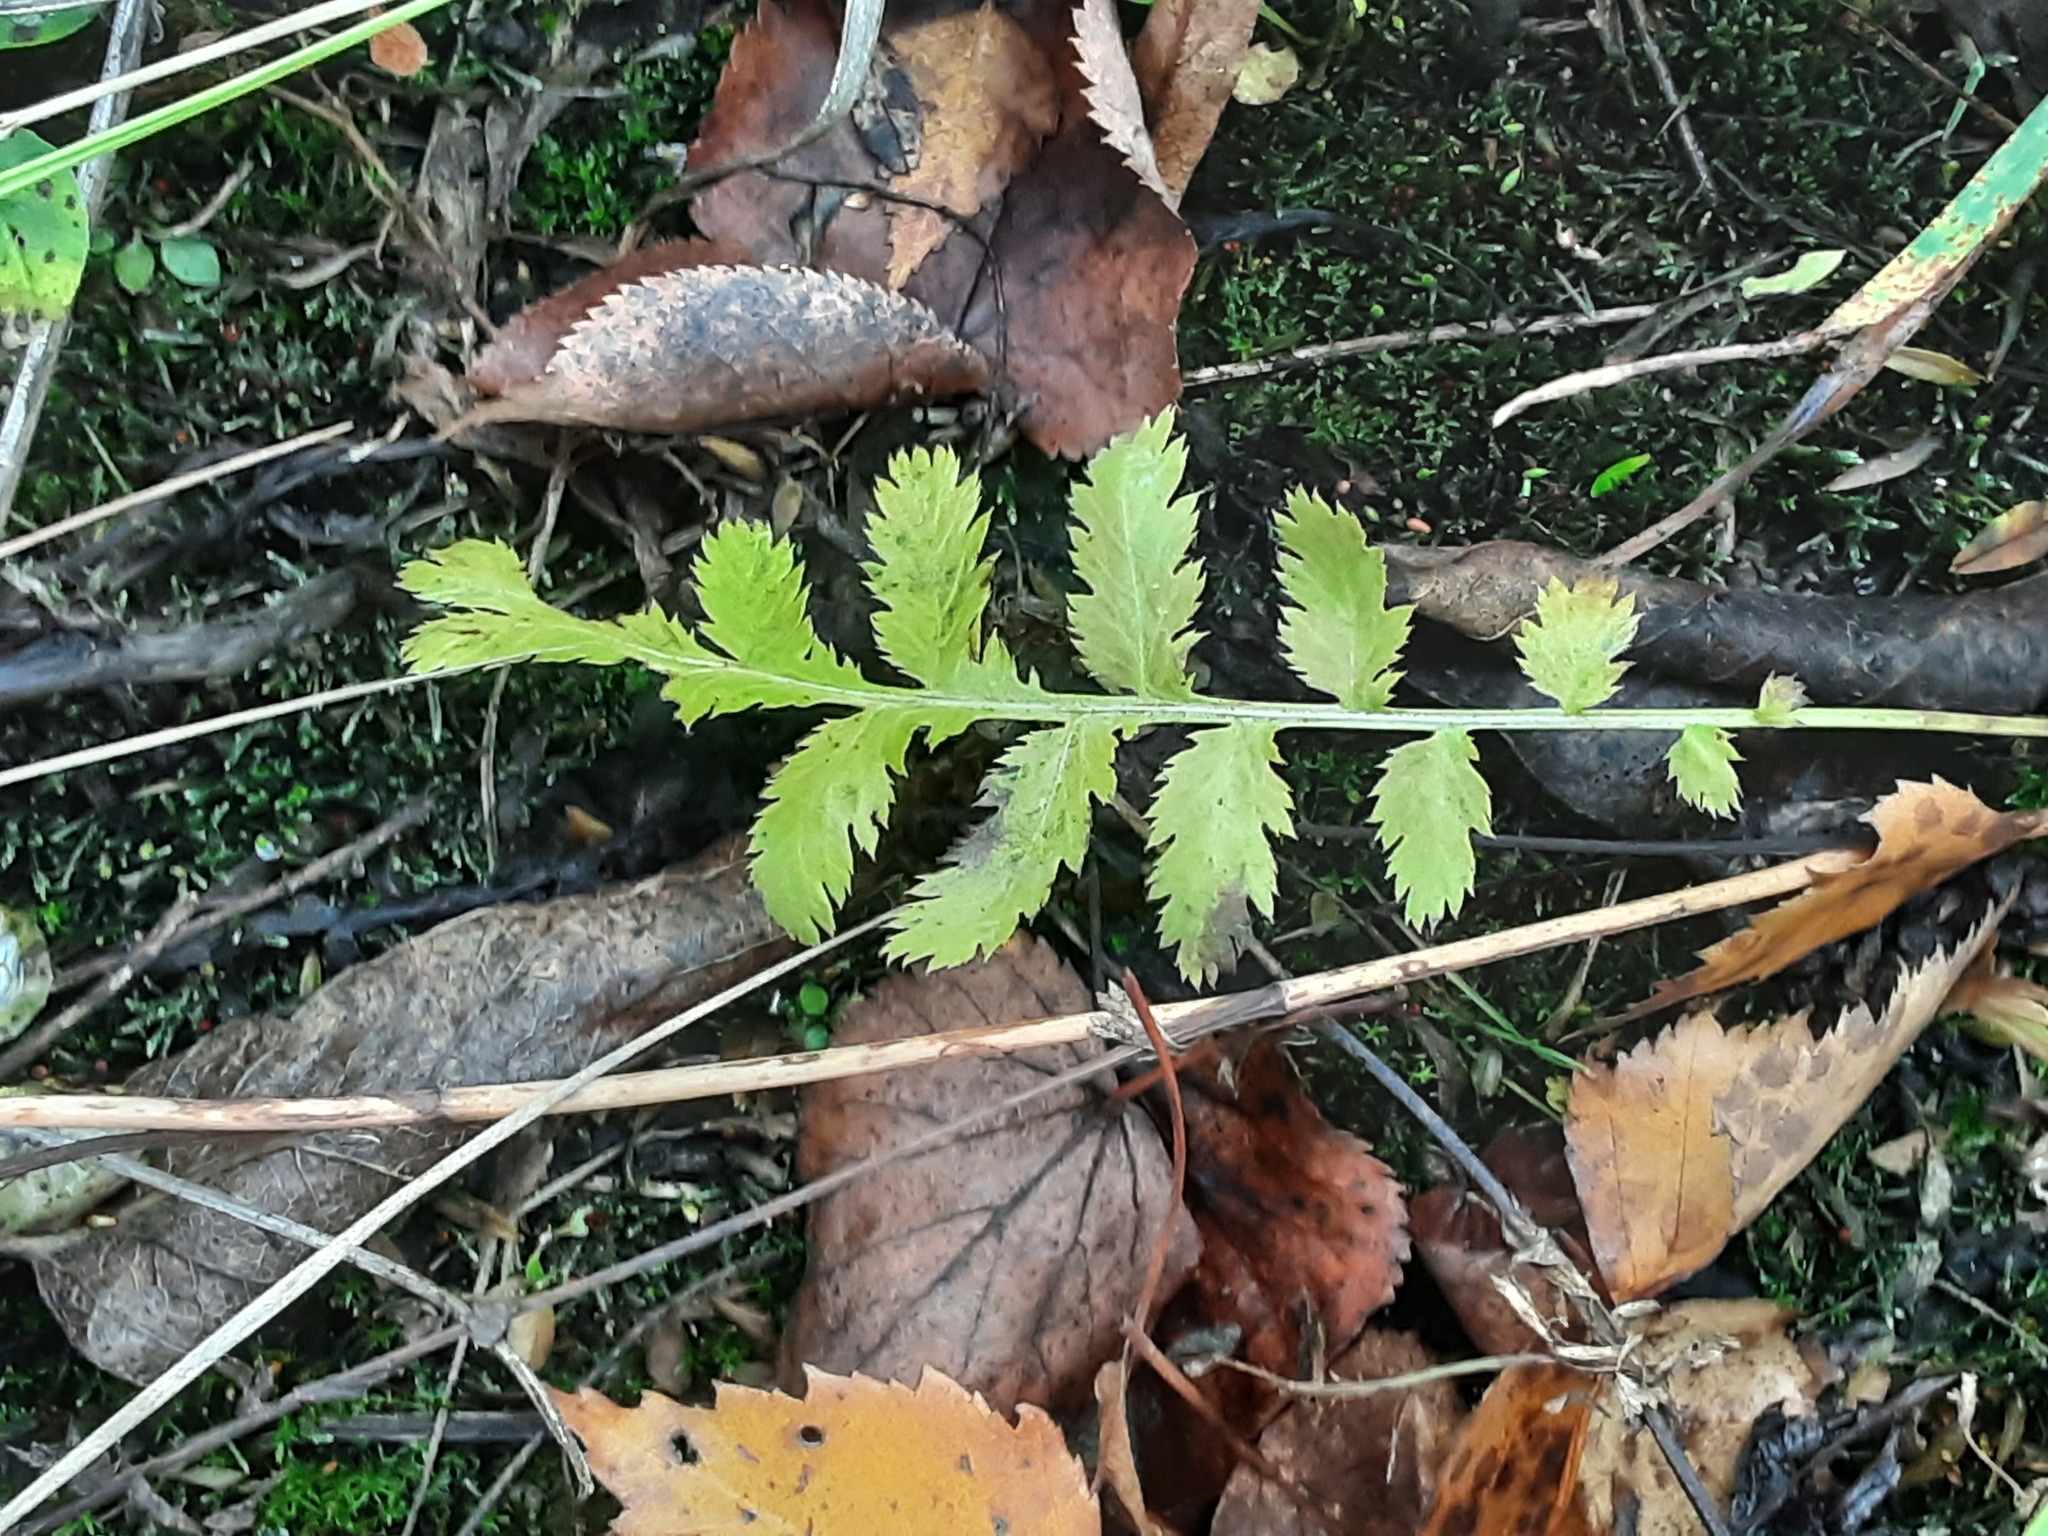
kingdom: Plantae
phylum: Tracheophyta
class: Magnoliopsida
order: Asterales
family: Asteraceae
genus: Tanacetum
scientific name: Tanacetum vulgare
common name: Common tansy
